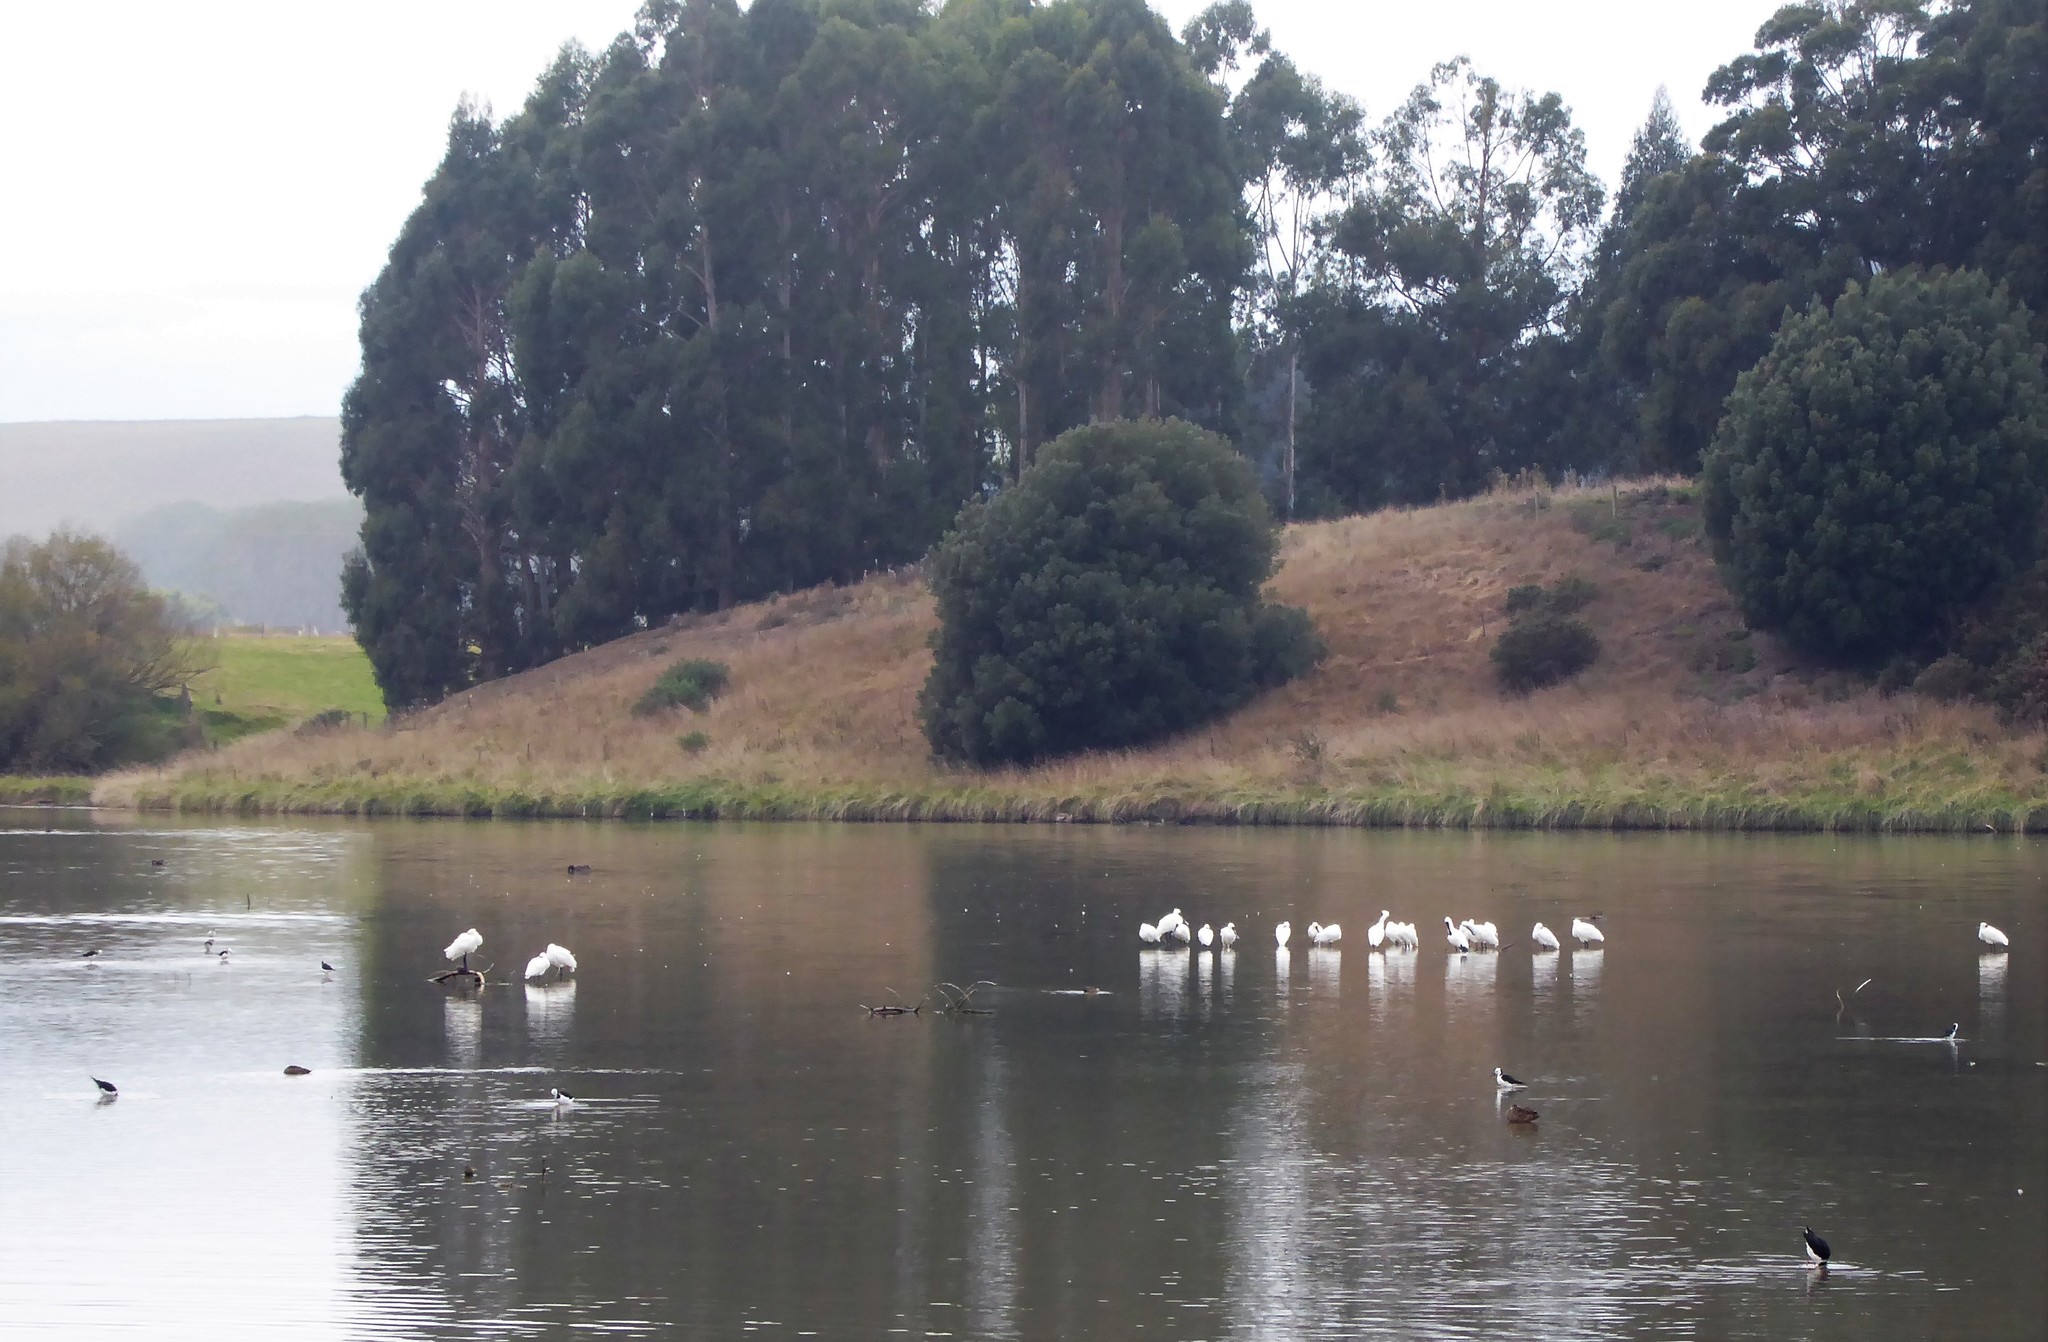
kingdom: Animalia
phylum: Chordata
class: Aves
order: Pelecaniformes
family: Threskiornithidae
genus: Platalea
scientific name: Platalea regia
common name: Royal spoonbill
